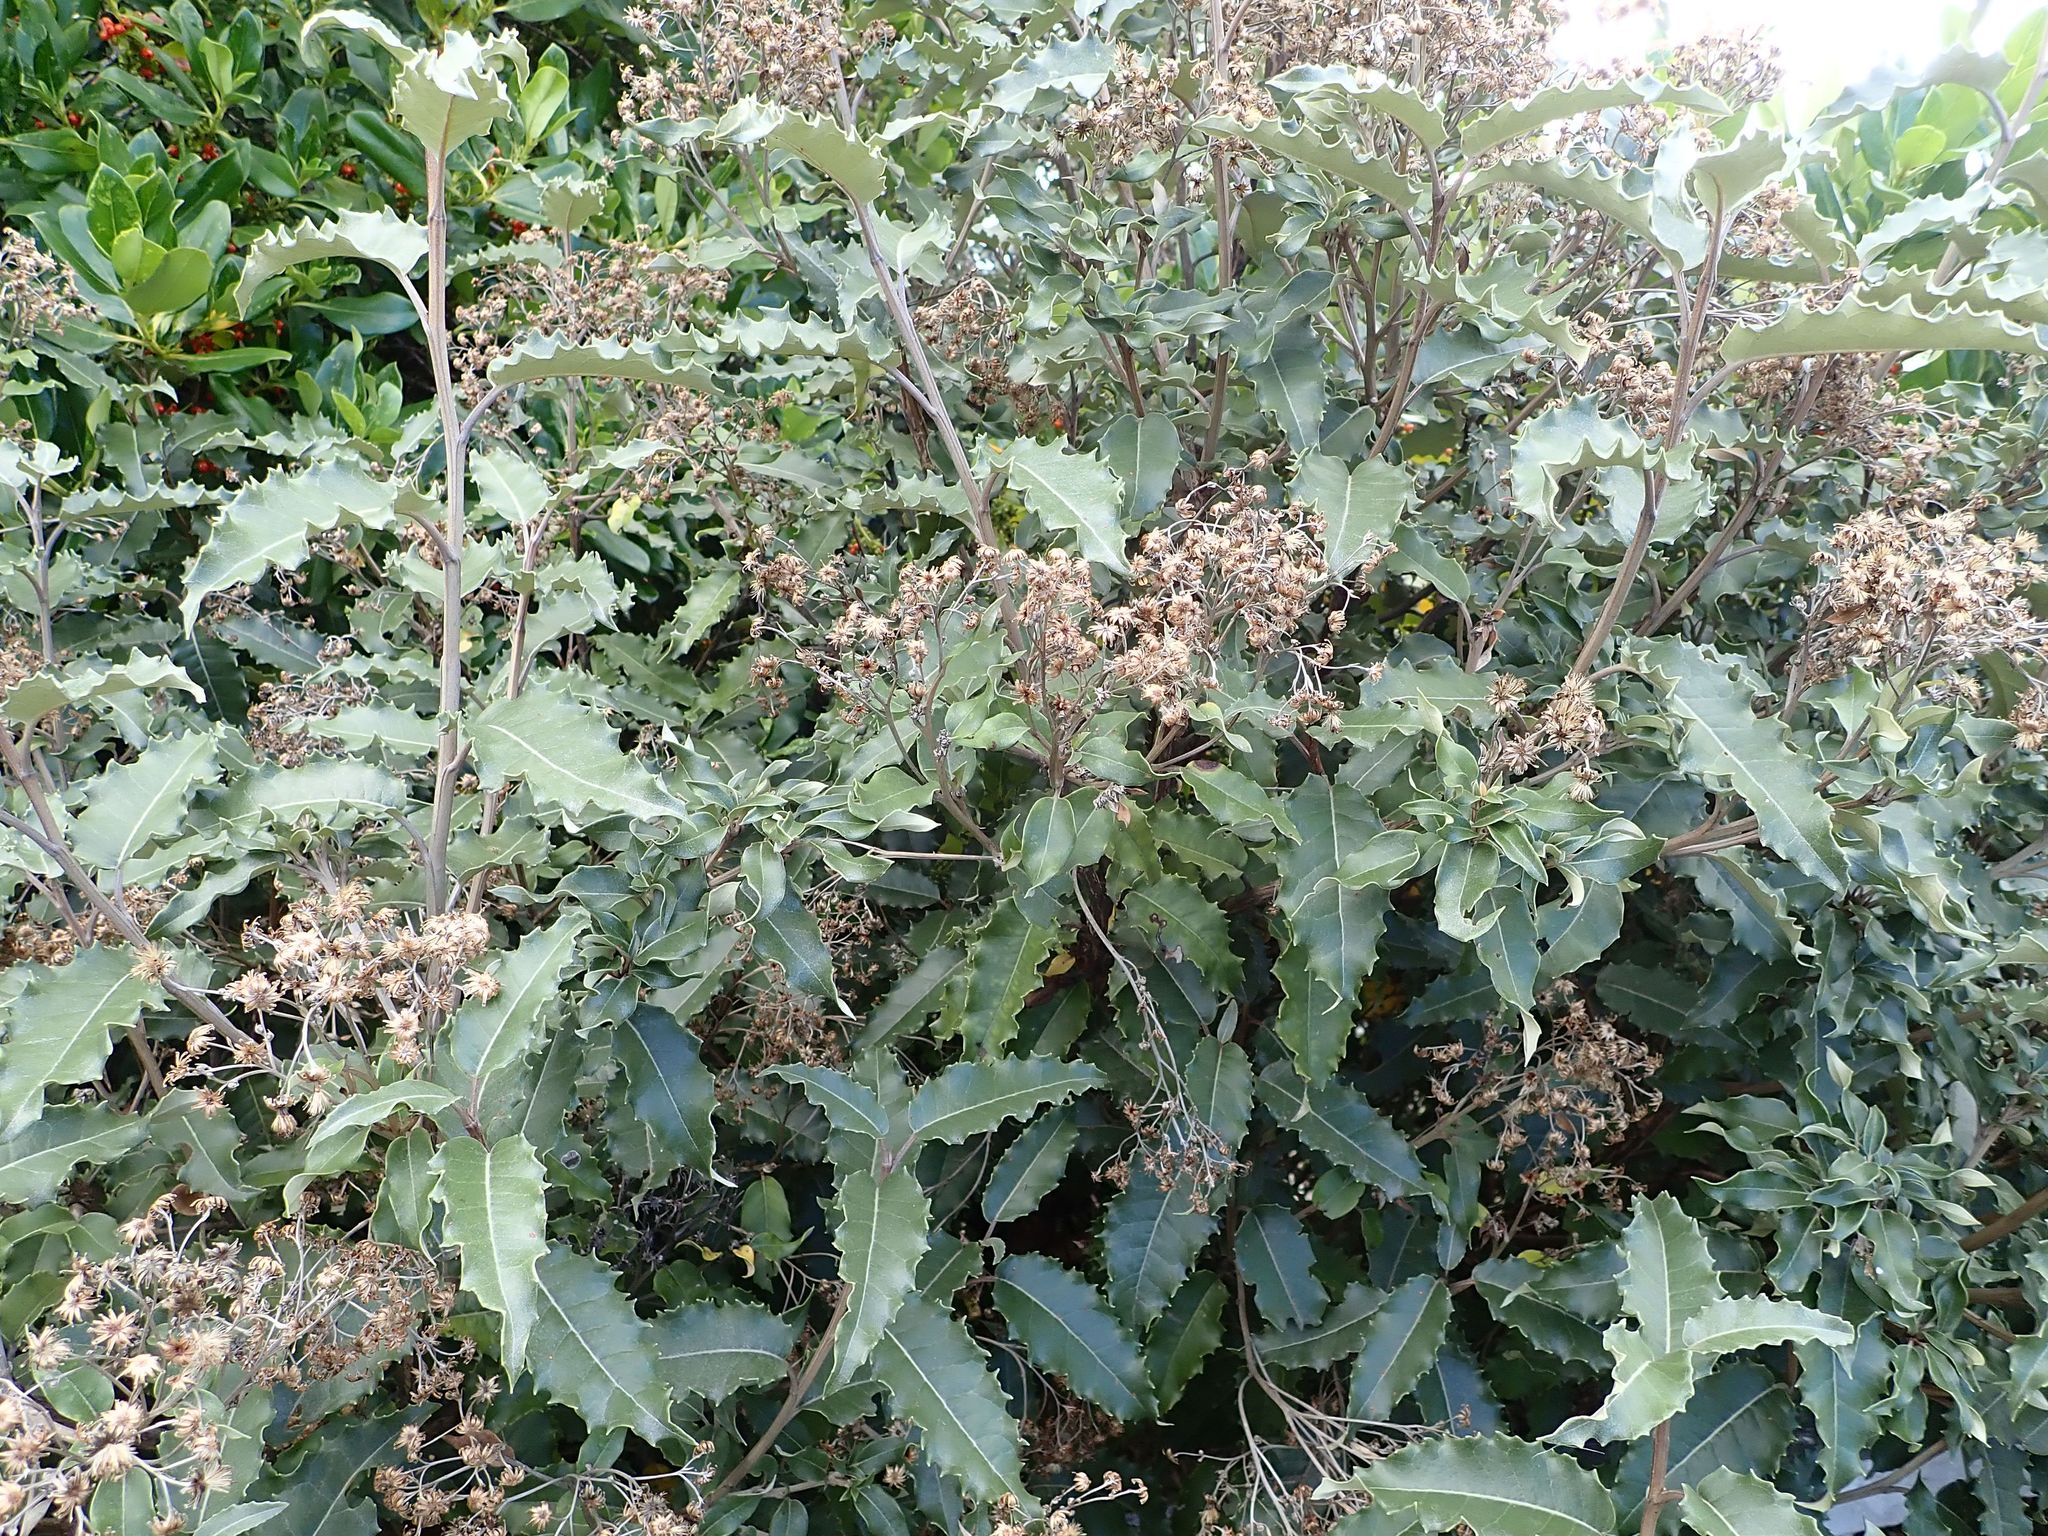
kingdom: Plantae
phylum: Tracheophyta
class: Magnoliopsida
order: Asterales
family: Asteraceae
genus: Olearia
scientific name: Olearia macrodonta
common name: New zealand holly
